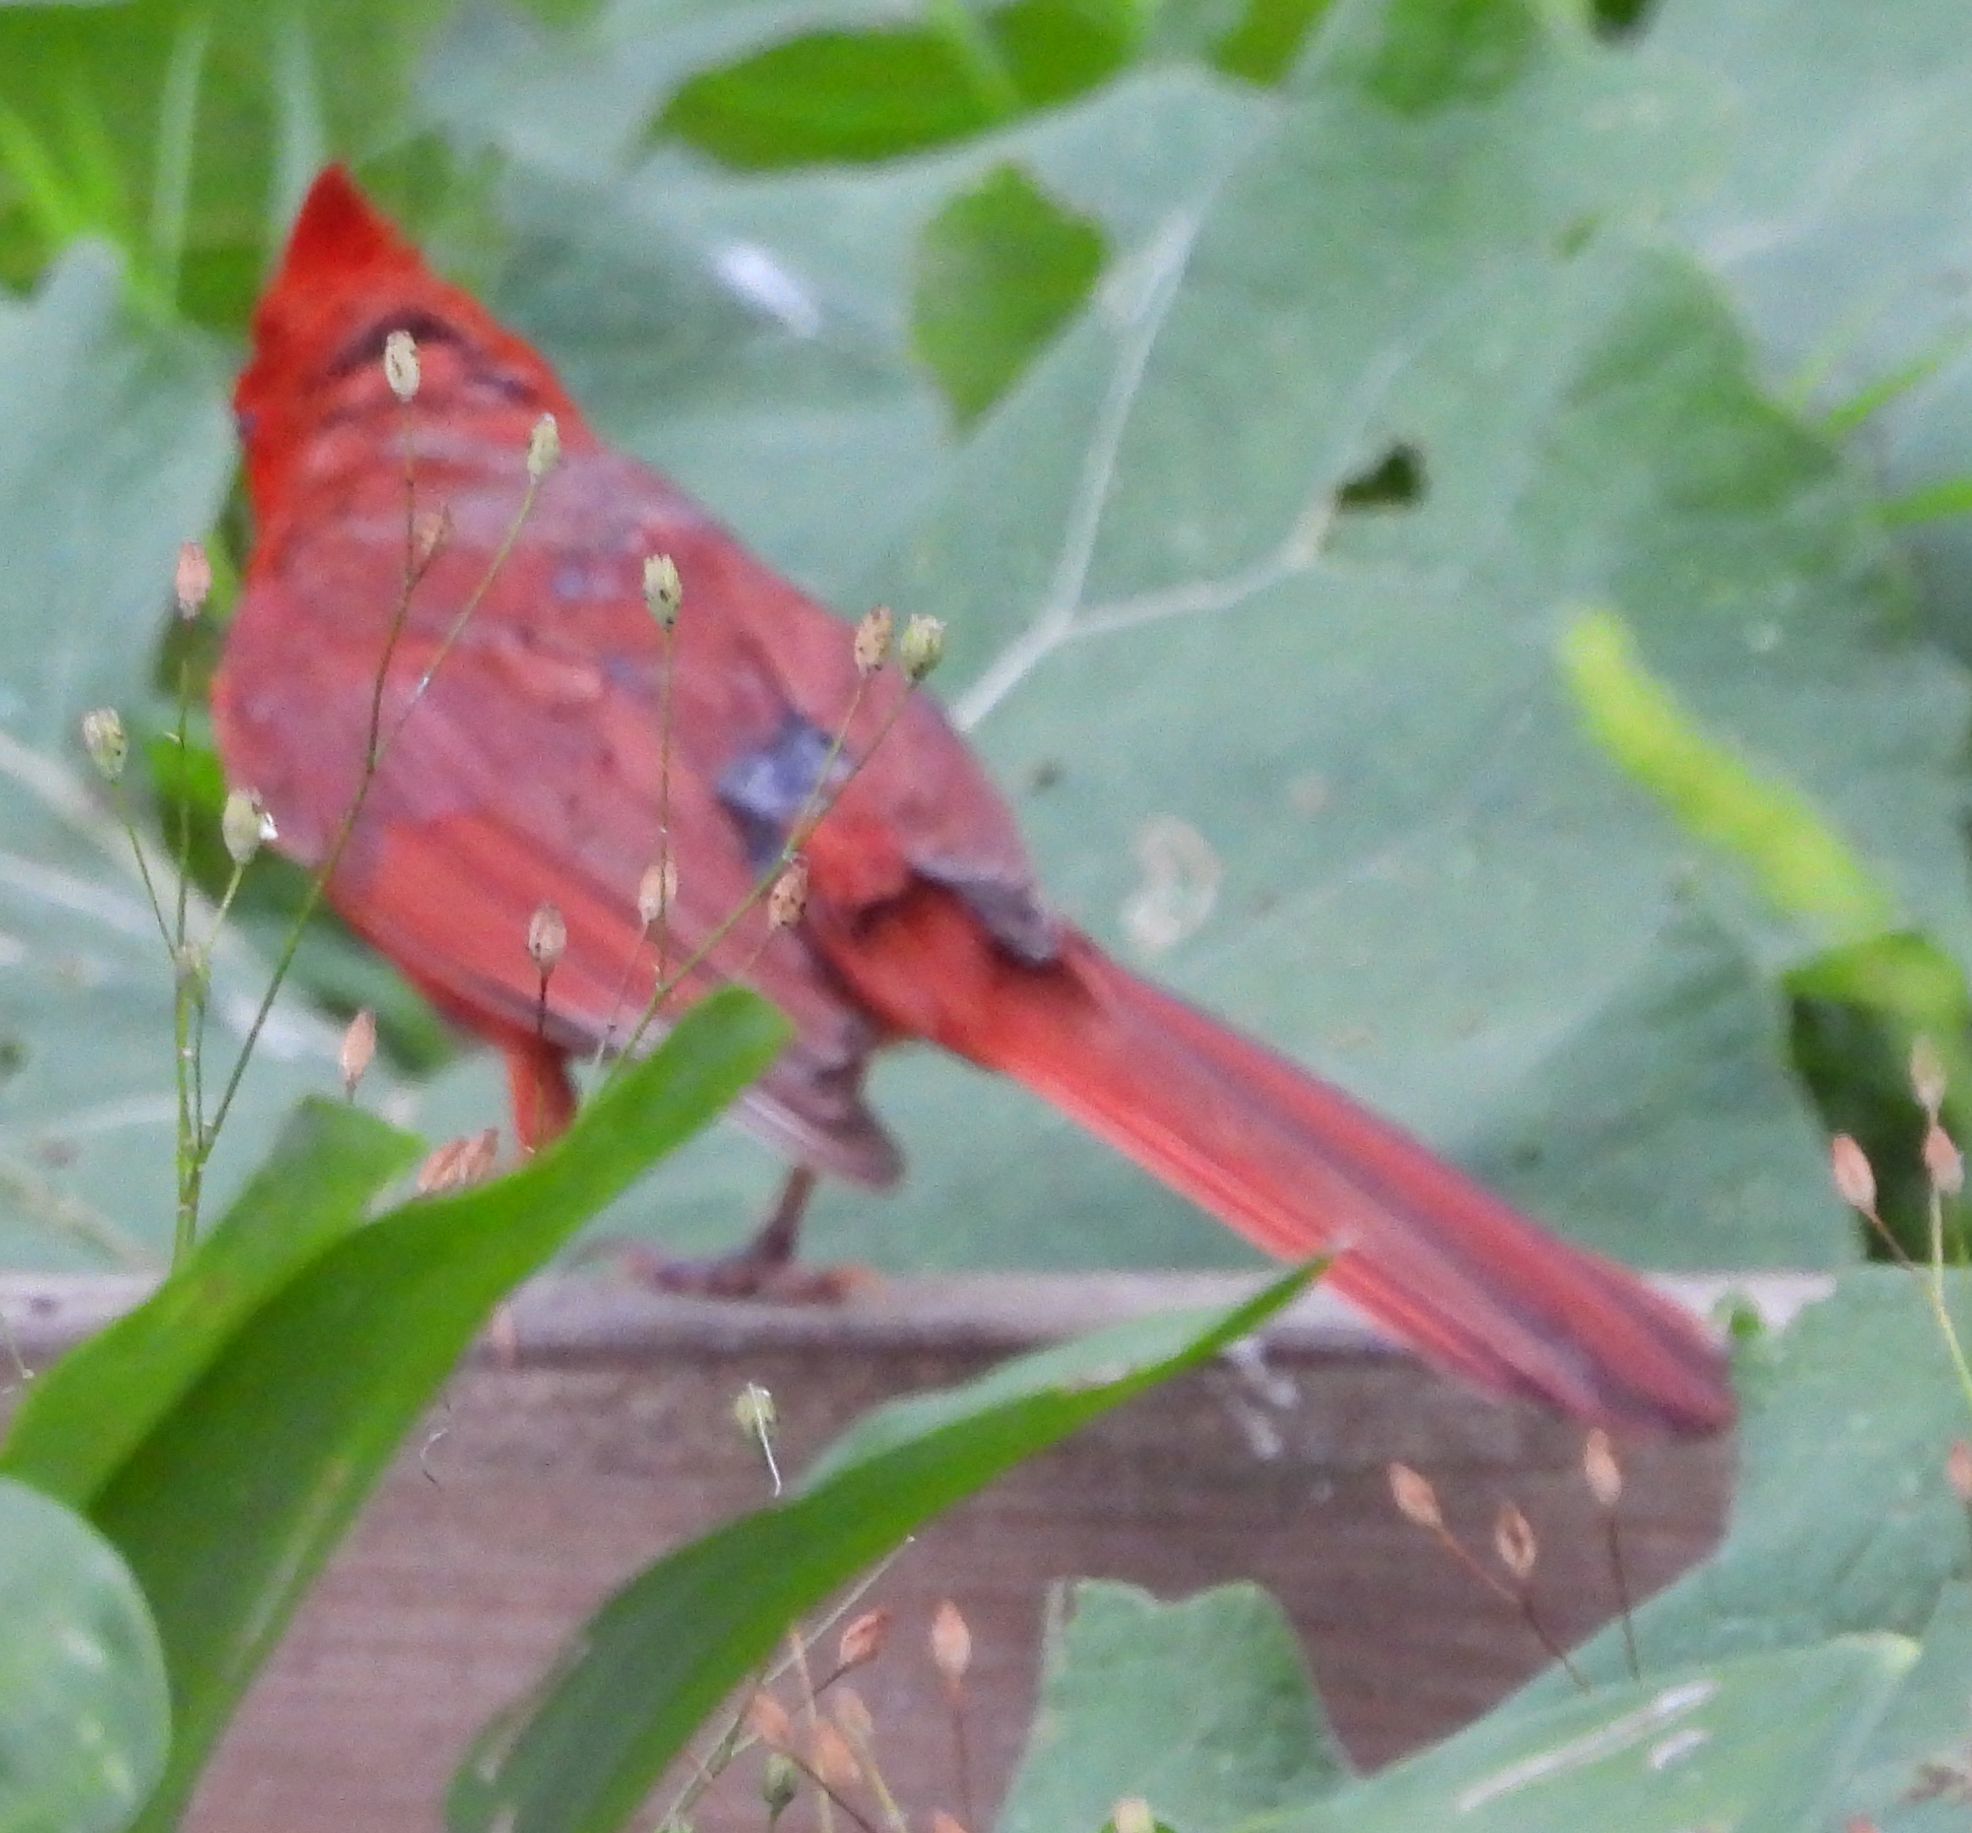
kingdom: Animalia
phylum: Chordata
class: Aves
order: Passeriformes
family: Cardinalidae
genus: Cardinalis
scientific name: Cardinalis cardinalis
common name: Northern cardinal
